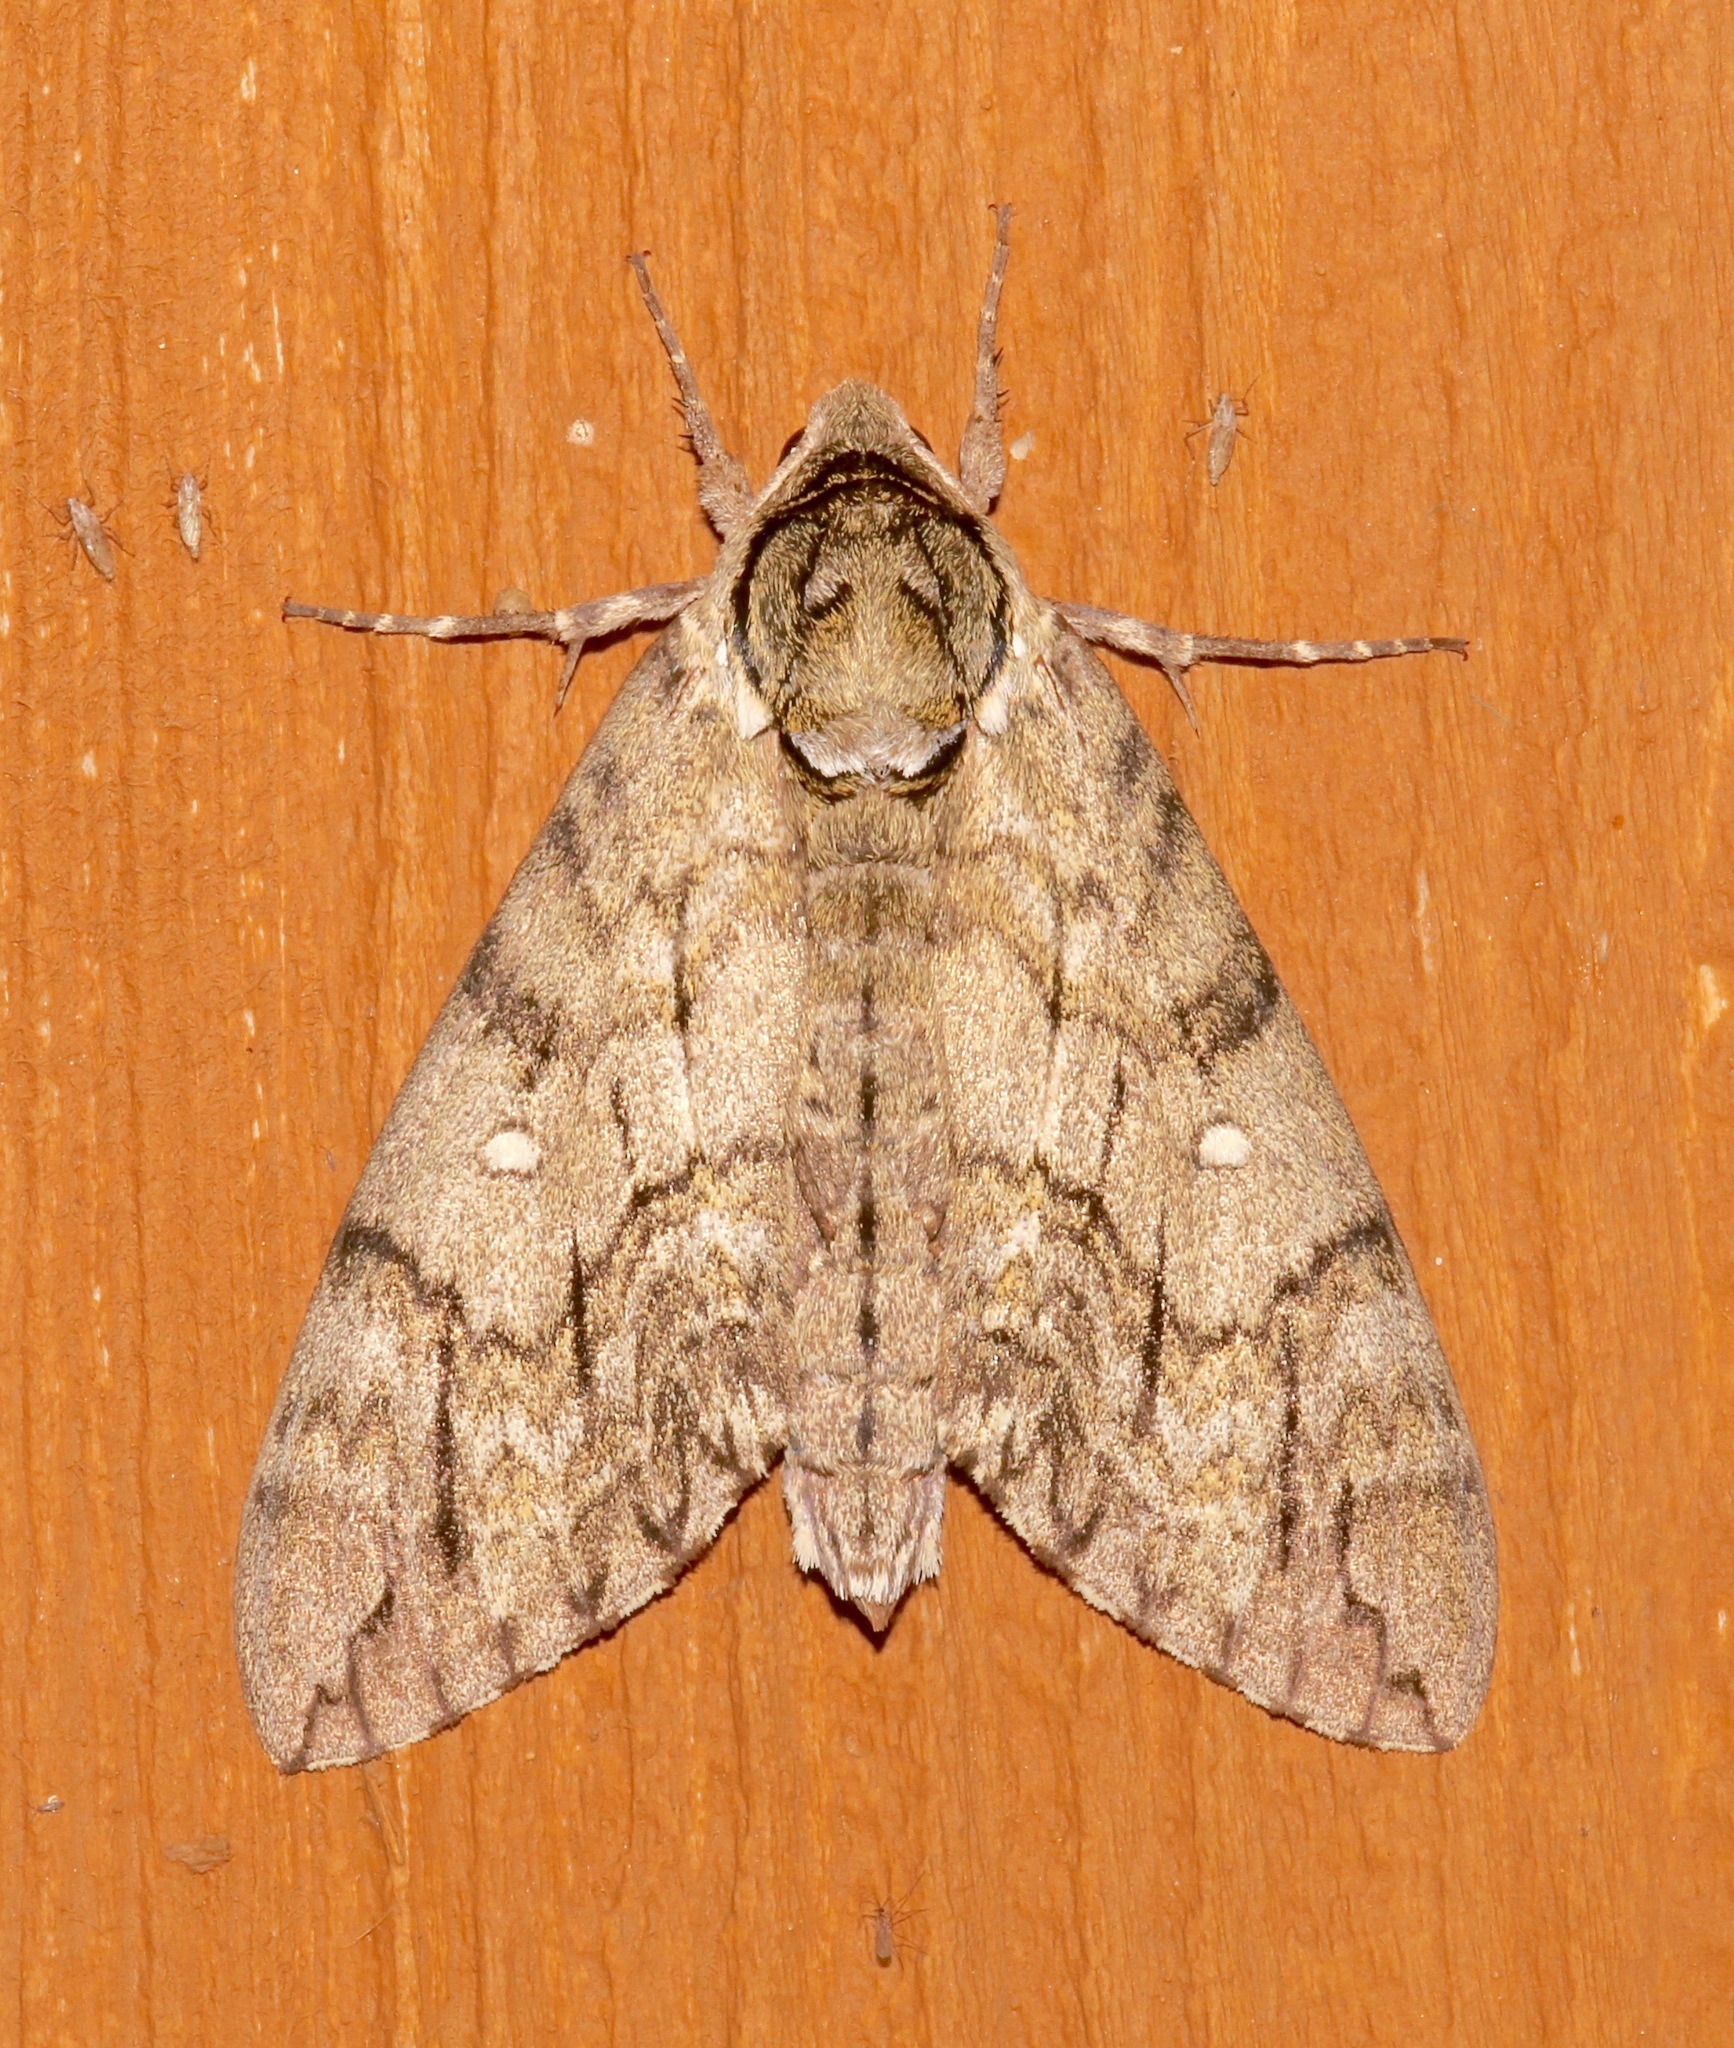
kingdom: Animalia
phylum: Arthropoda
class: Insecta
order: Lepidoptera
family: Sphingidae
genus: Ceratomia
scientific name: Ceratomia undulosa
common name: Waved sphinx
